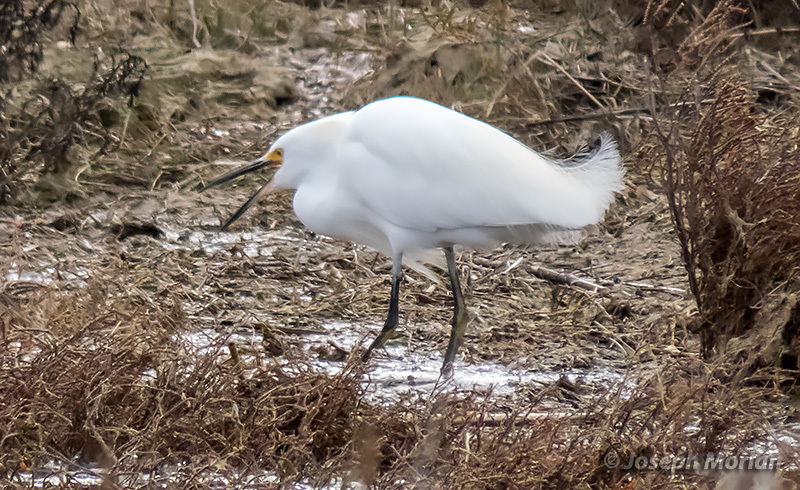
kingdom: Animalia
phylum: Chordata
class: Aves
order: Pelecaniformes
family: Ardeidae
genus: Egretta
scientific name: Egretta thula
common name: Snowy egret
